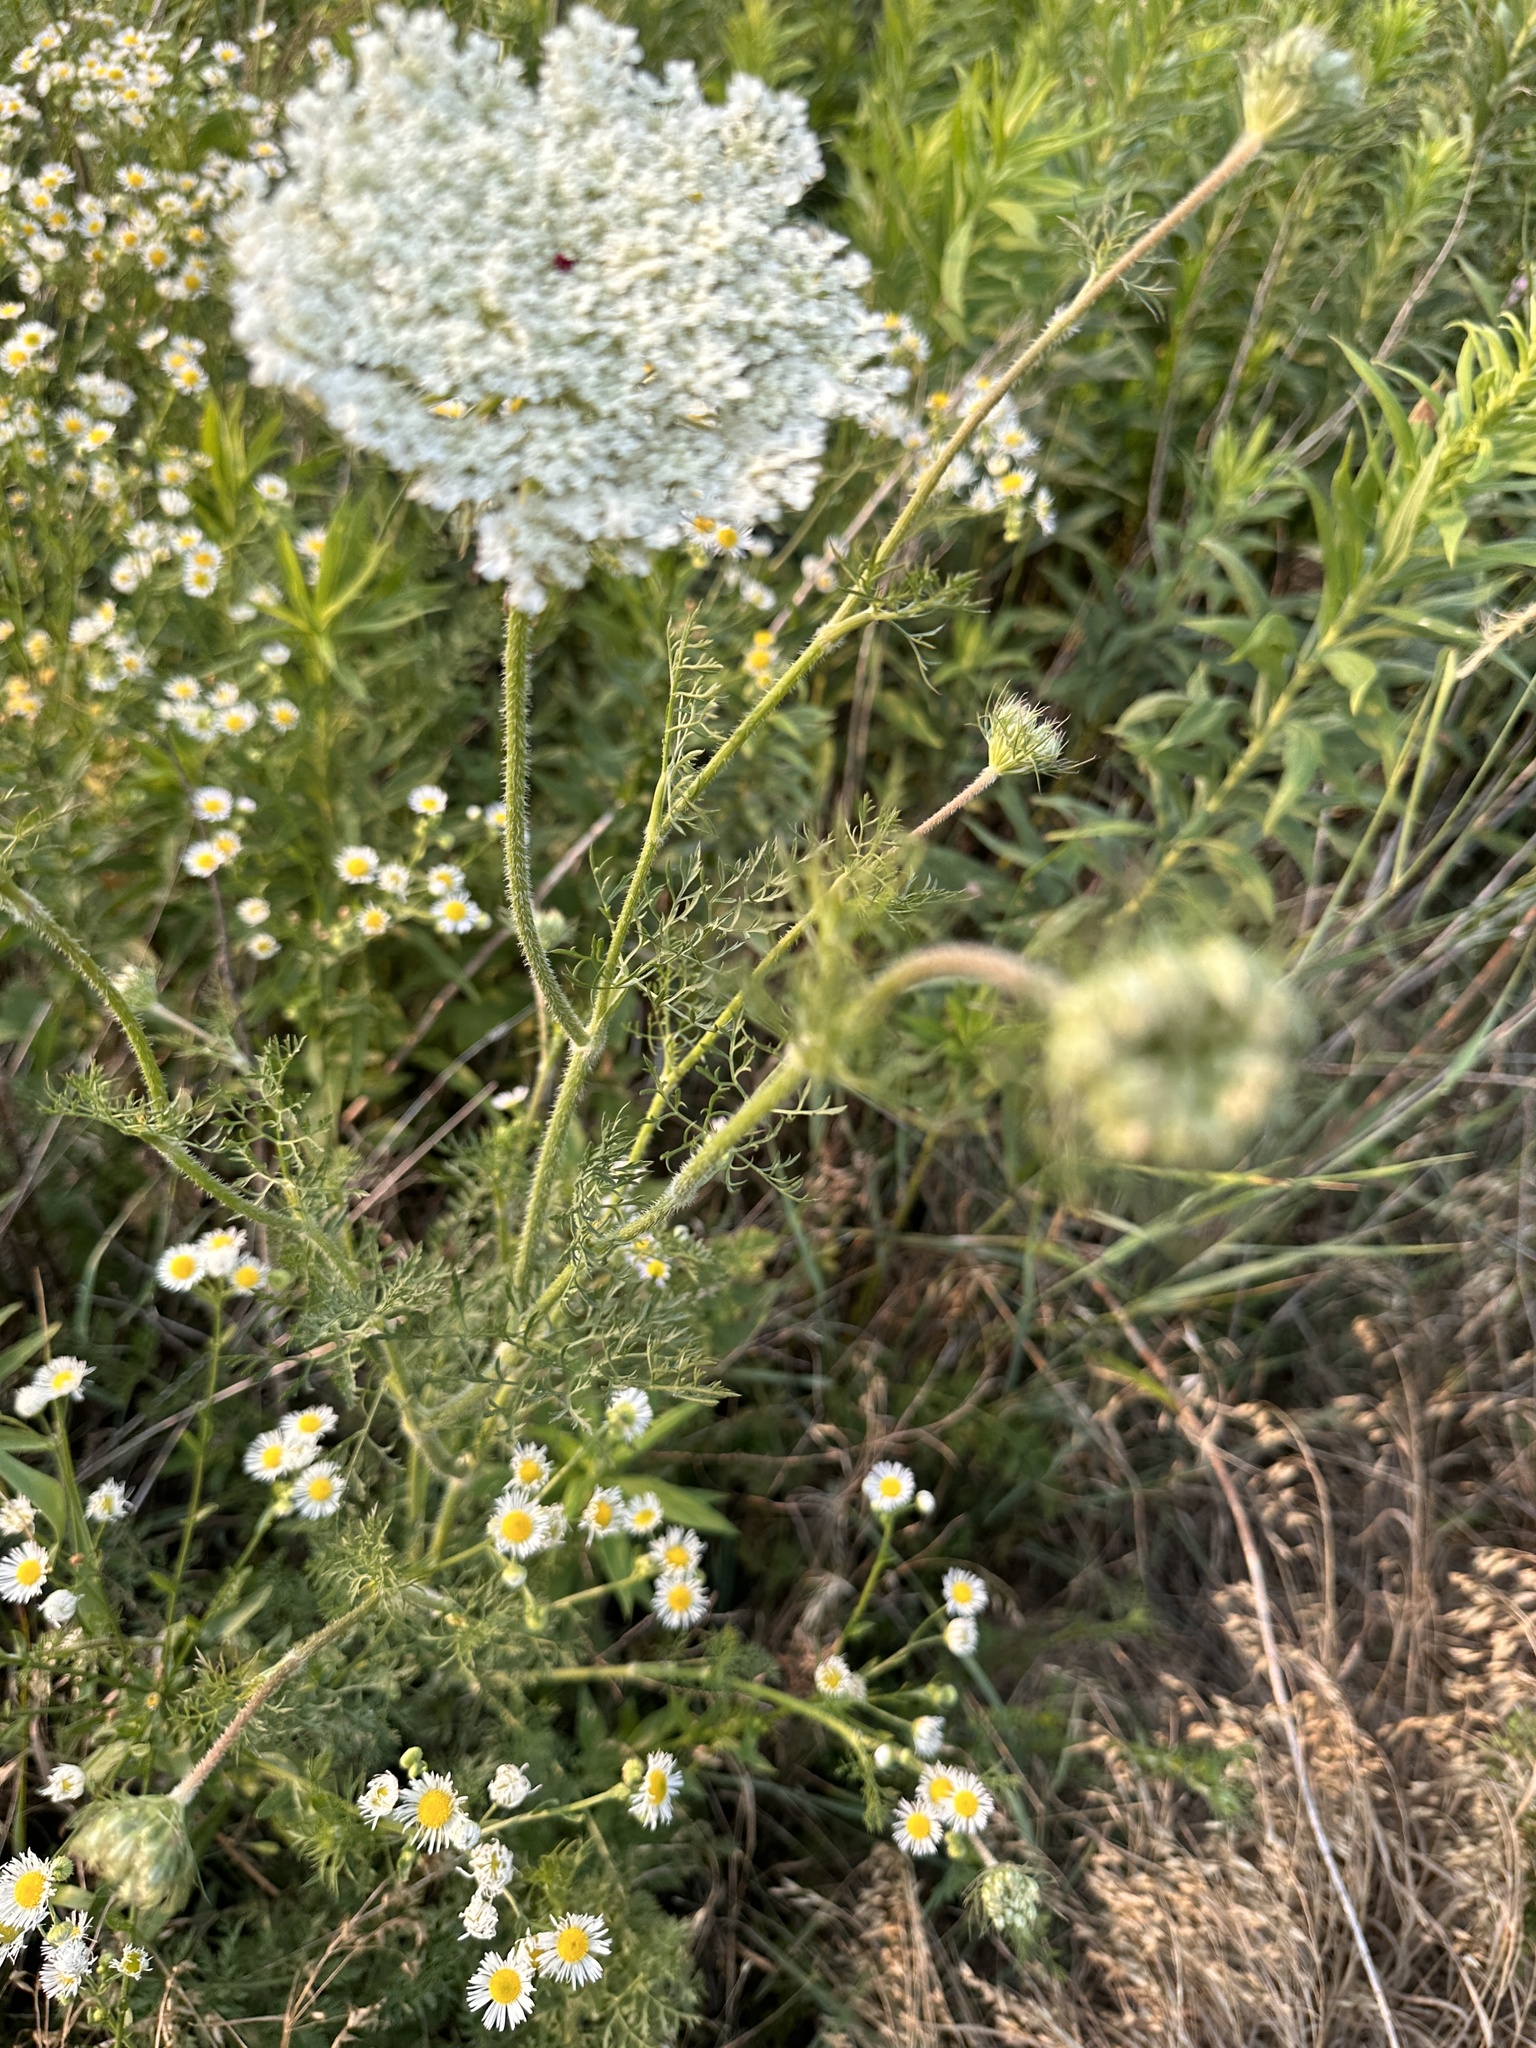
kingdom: Plantae
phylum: Tracheophyta
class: Magnoliopsida
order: Apiales
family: Apiaceae
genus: Daucus
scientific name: Daucus carota
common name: Wild carrot
